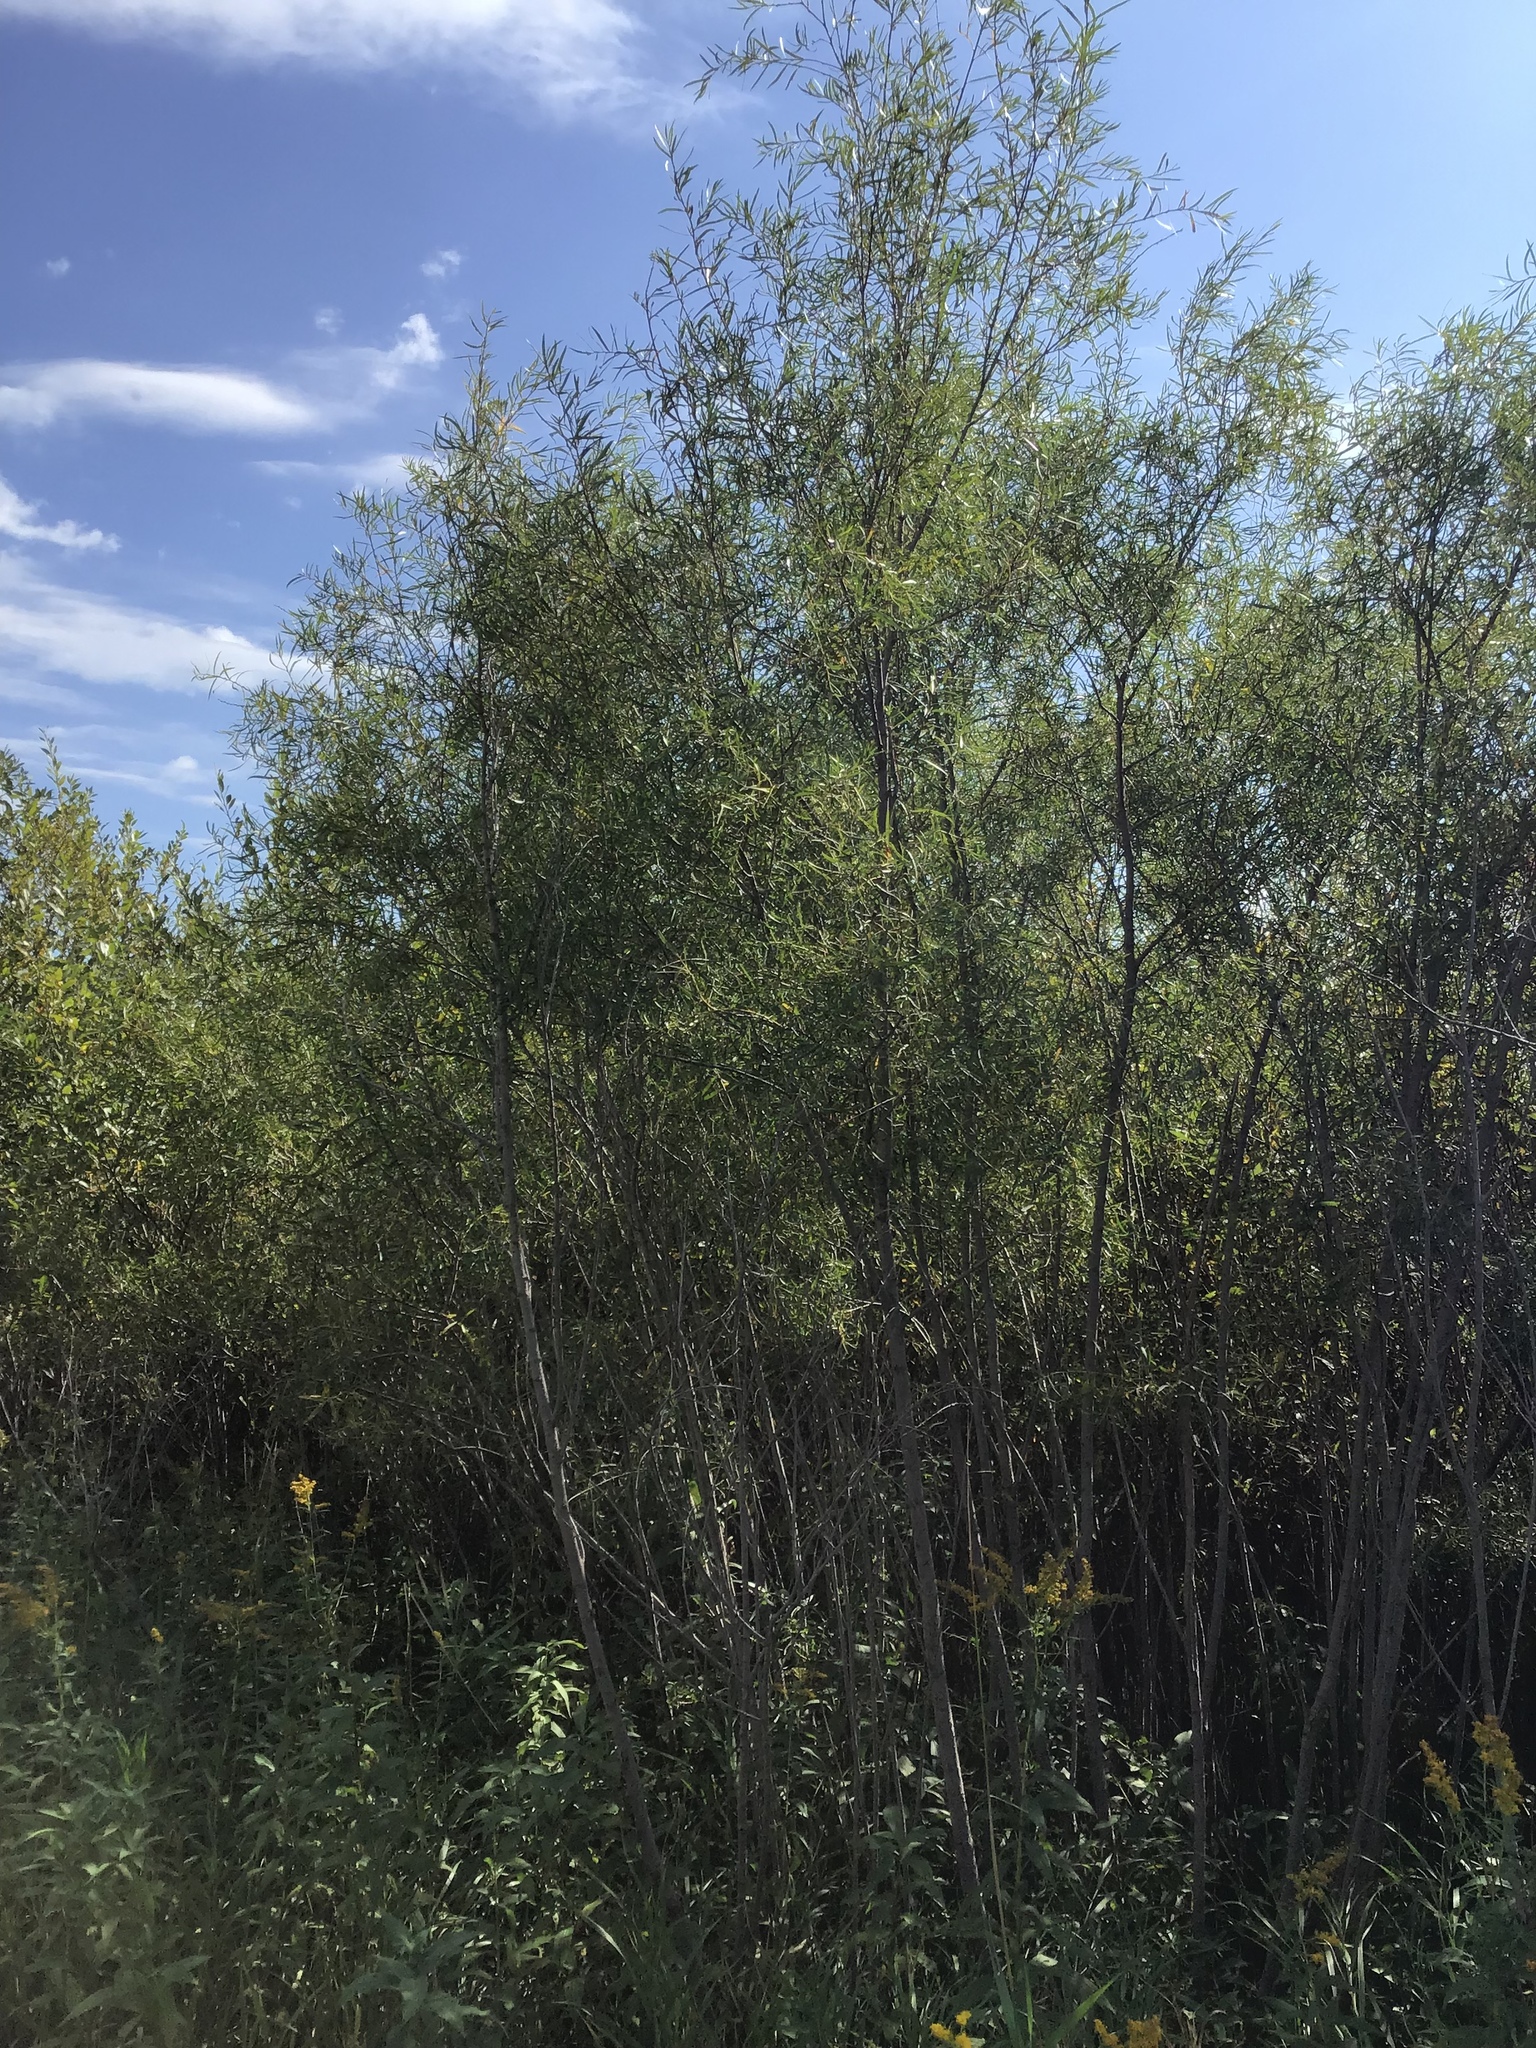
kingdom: Plantae
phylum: Tracheophyta
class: Magnoliopsida
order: Malpighiales
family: Salicaceae
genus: Salix
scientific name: Salix interior
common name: Sandbar willow
